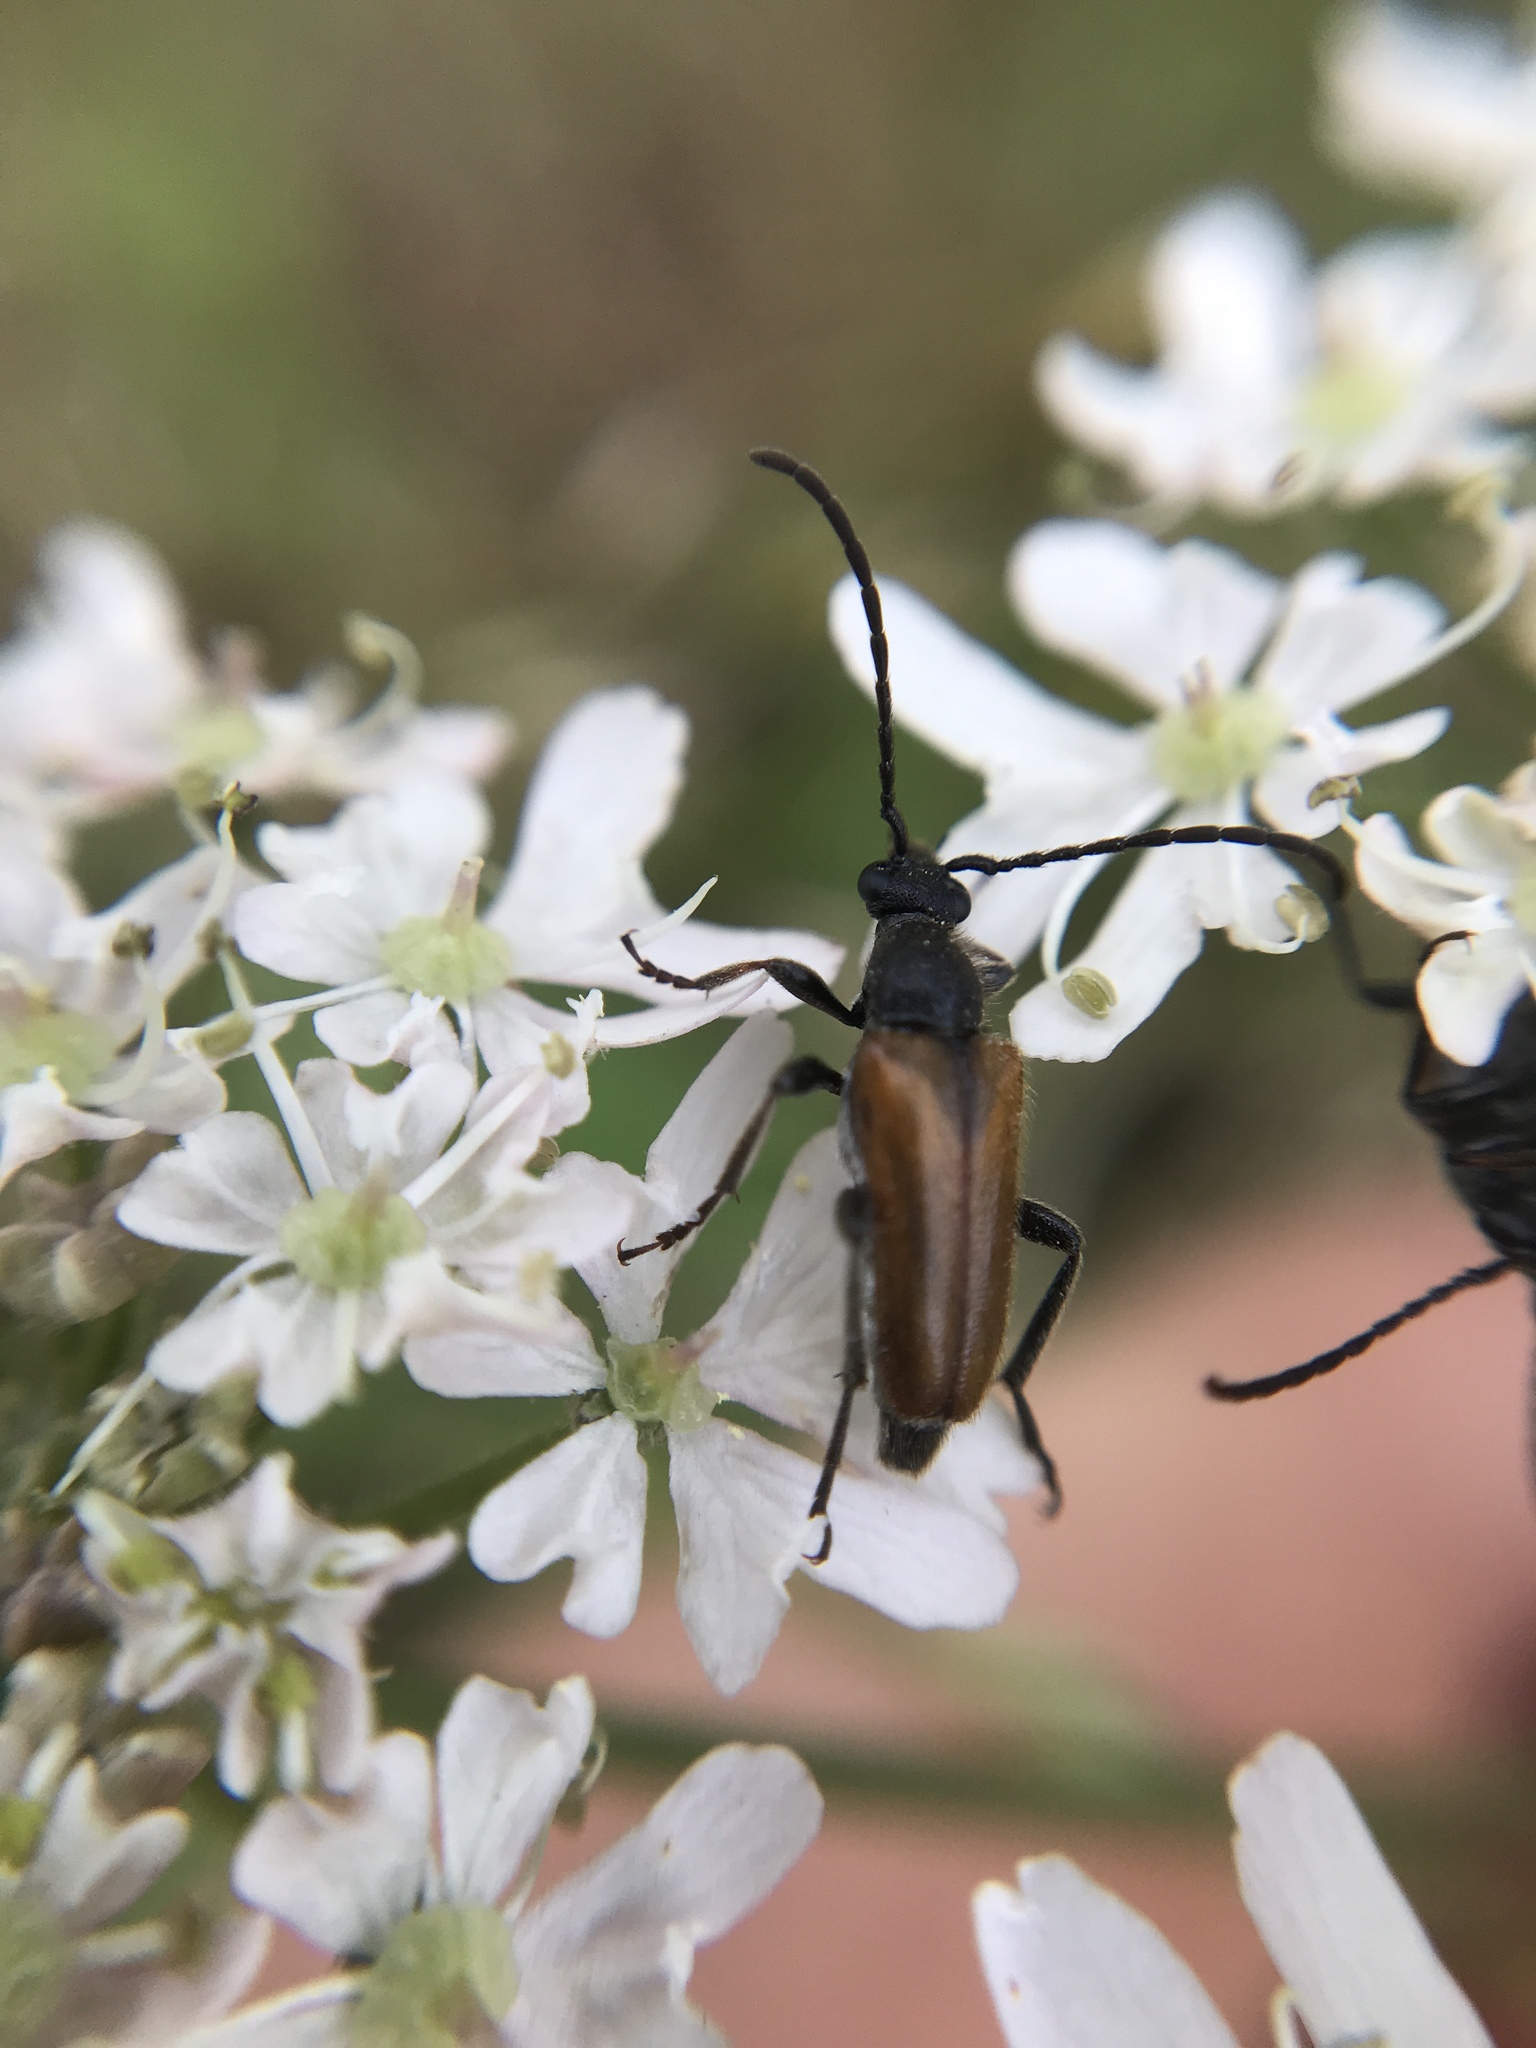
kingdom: Animalia
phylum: Arthropoda
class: Insecta
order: Coleoptera
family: Cerambycidae
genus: Pseudovadonia
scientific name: Pseudovadonia livida
